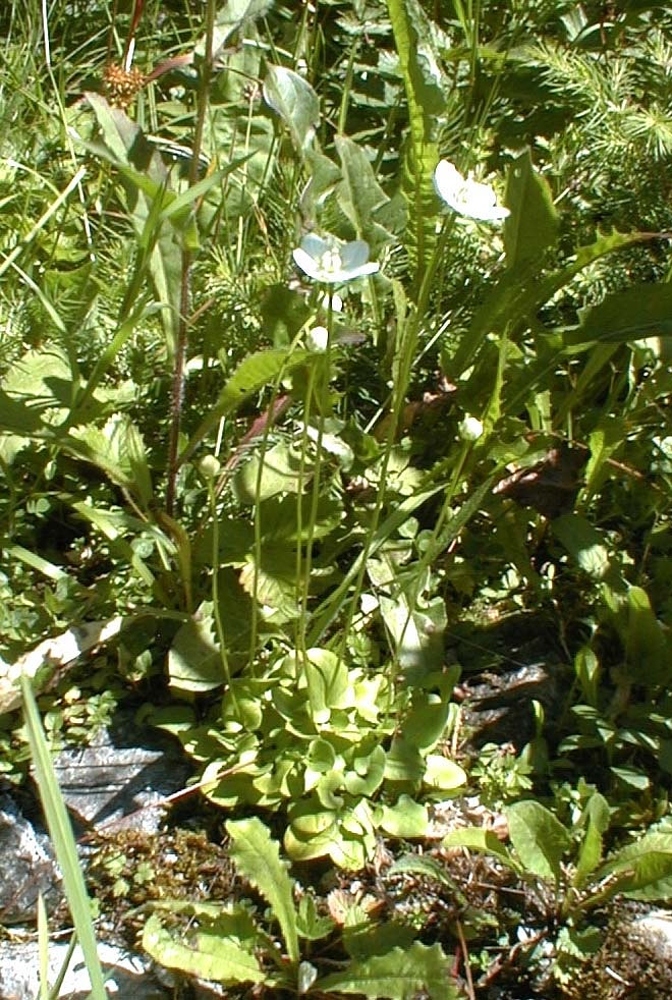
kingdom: Plantae
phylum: Tracheophyta
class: Magnoliopsida
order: Celastrales
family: Parnassiaceae
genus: Parnassia
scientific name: Parnassia palustris
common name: Grass-of-parnassus
